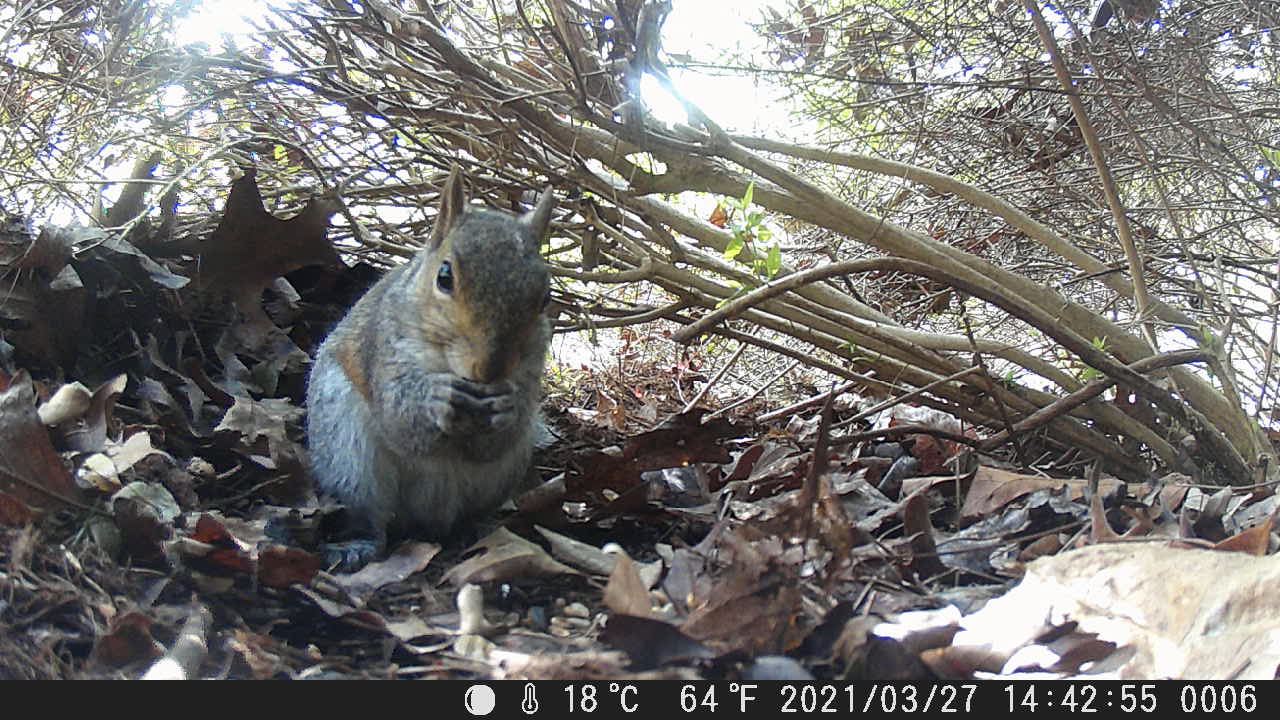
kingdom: Animalia
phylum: Chordata
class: Mammalia
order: Rodentia
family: Sciuridae
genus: Sciurus
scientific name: Sciurus carolinensis
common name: Eastern gray squirrel
